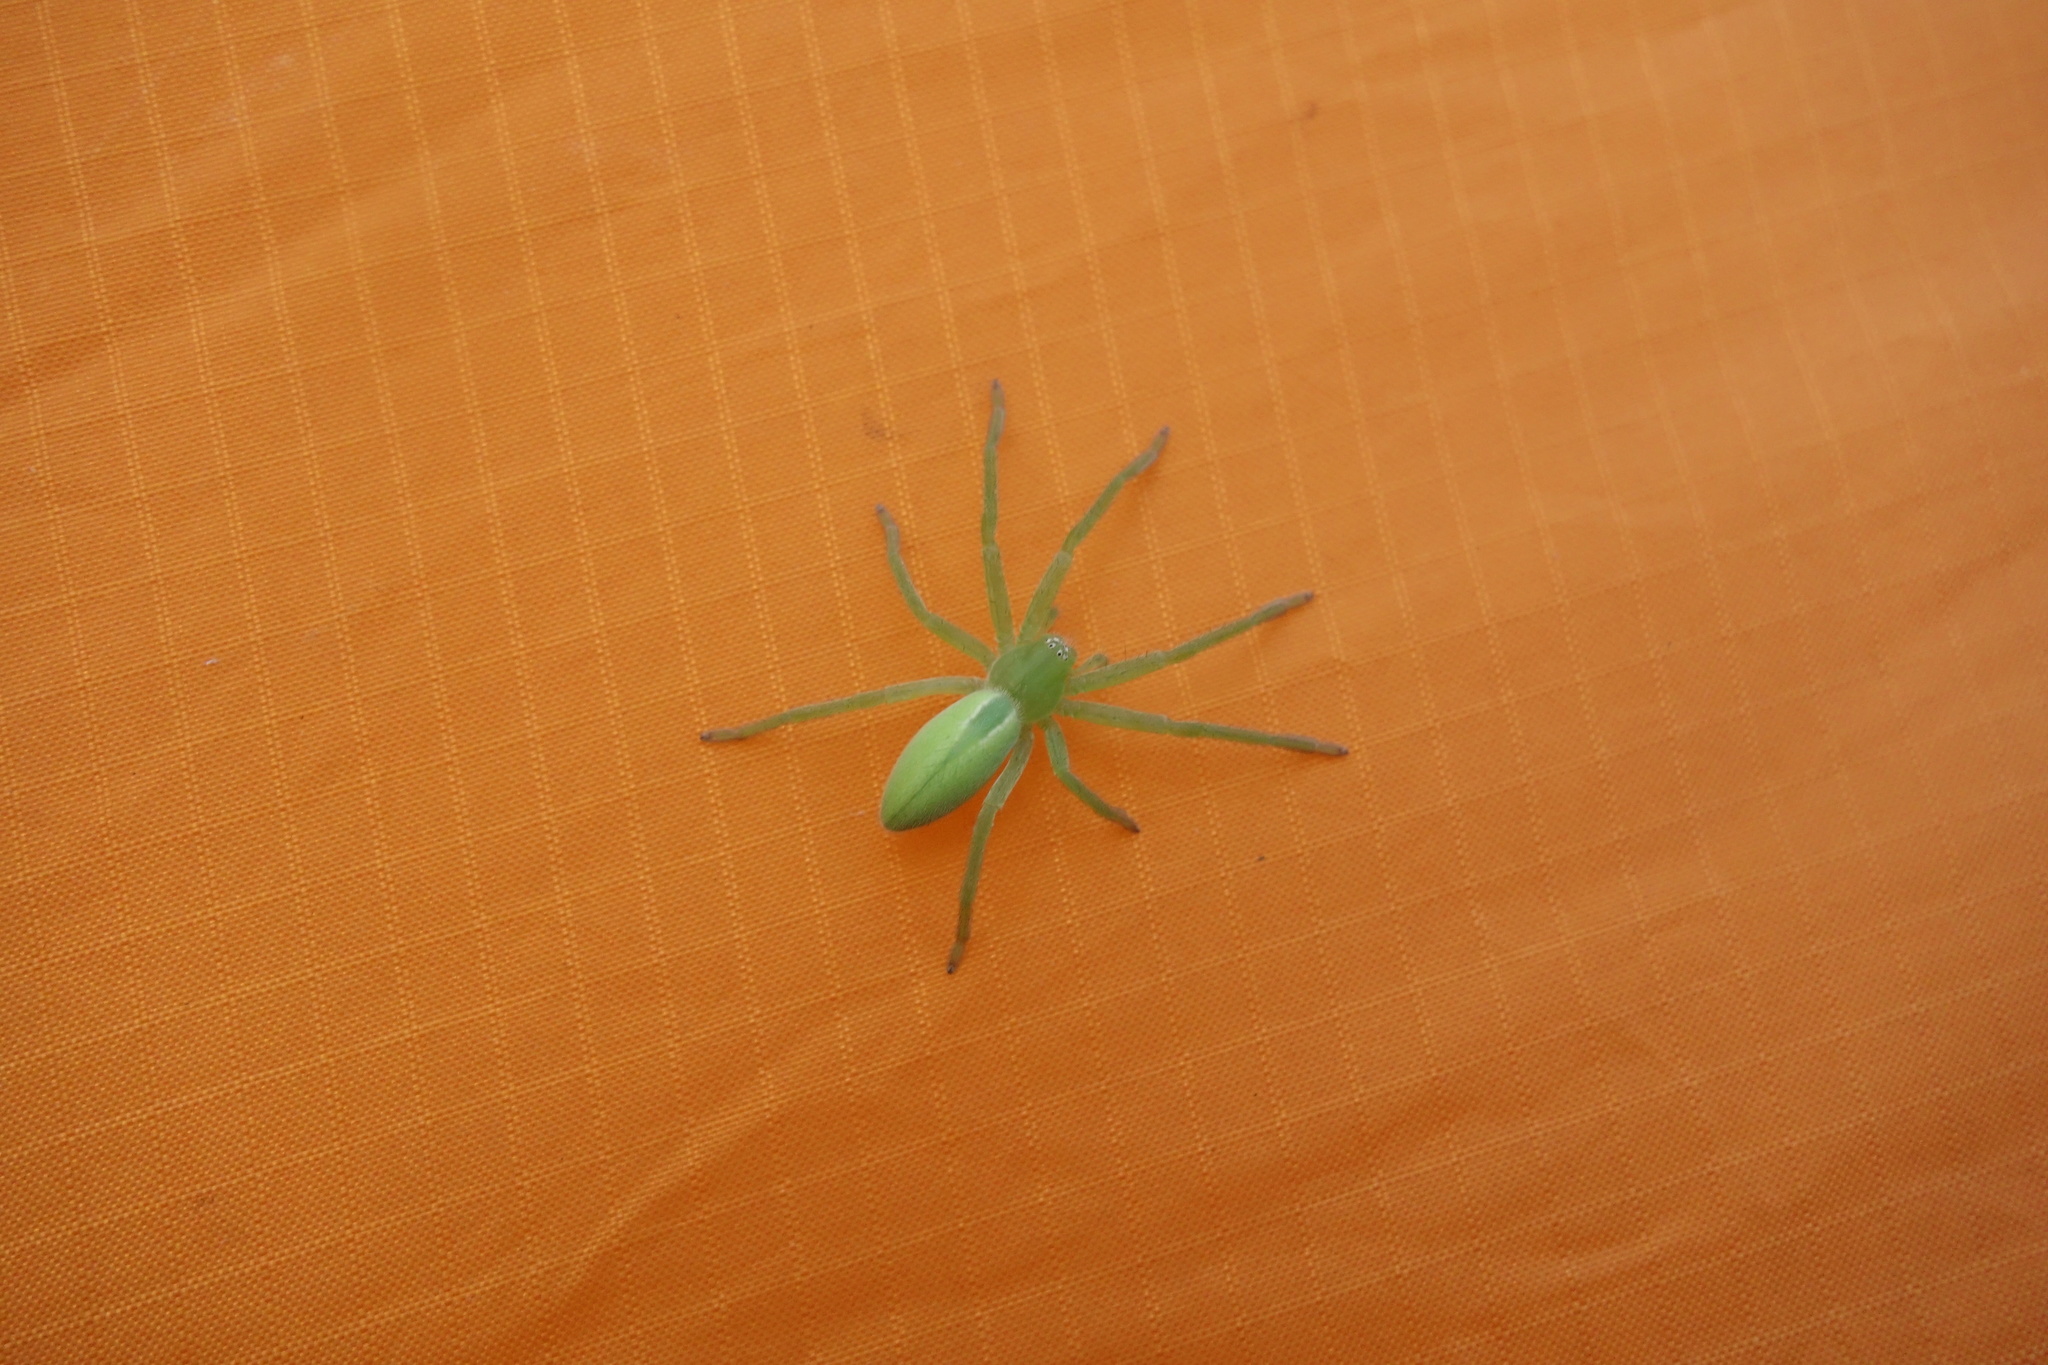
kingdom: Animalia
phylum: Arthropoda
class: Arachnida
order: Araneae
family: Sparassidae
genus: Micrommata
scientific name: Micrommata virescens
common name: Green spider
